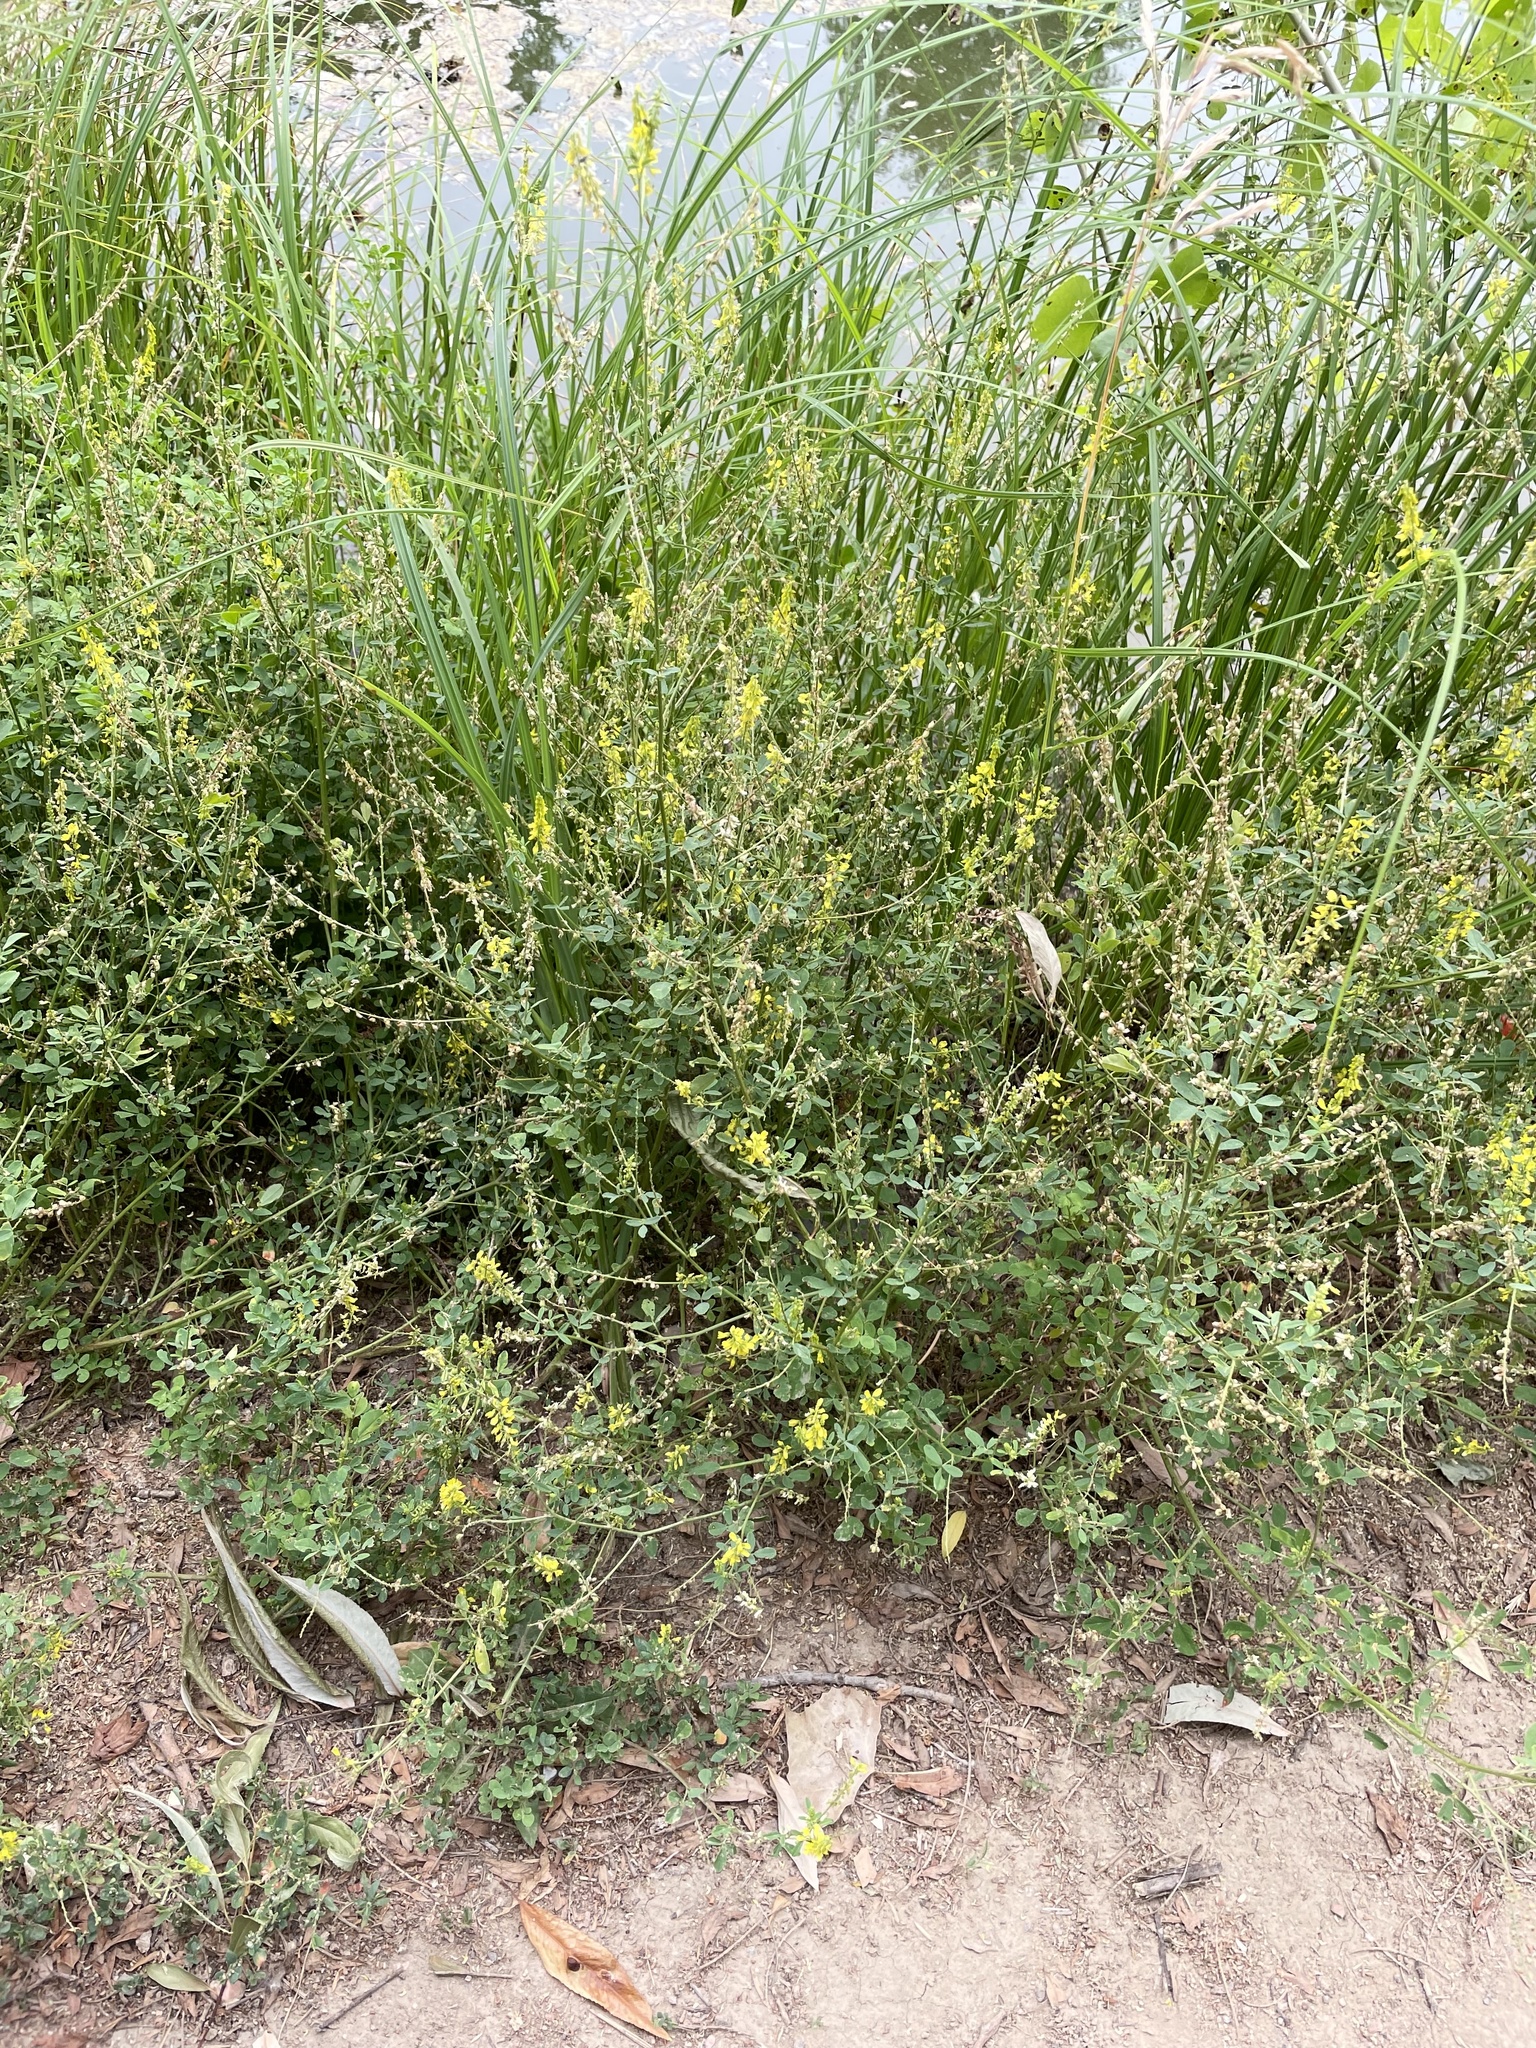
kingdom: Plantae
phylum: Tracheophyta
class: Magnoliopsida
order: Fabales
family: Fabaceae
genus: Melilotus
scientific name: Melilotus officinalis
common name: Sweetclover
